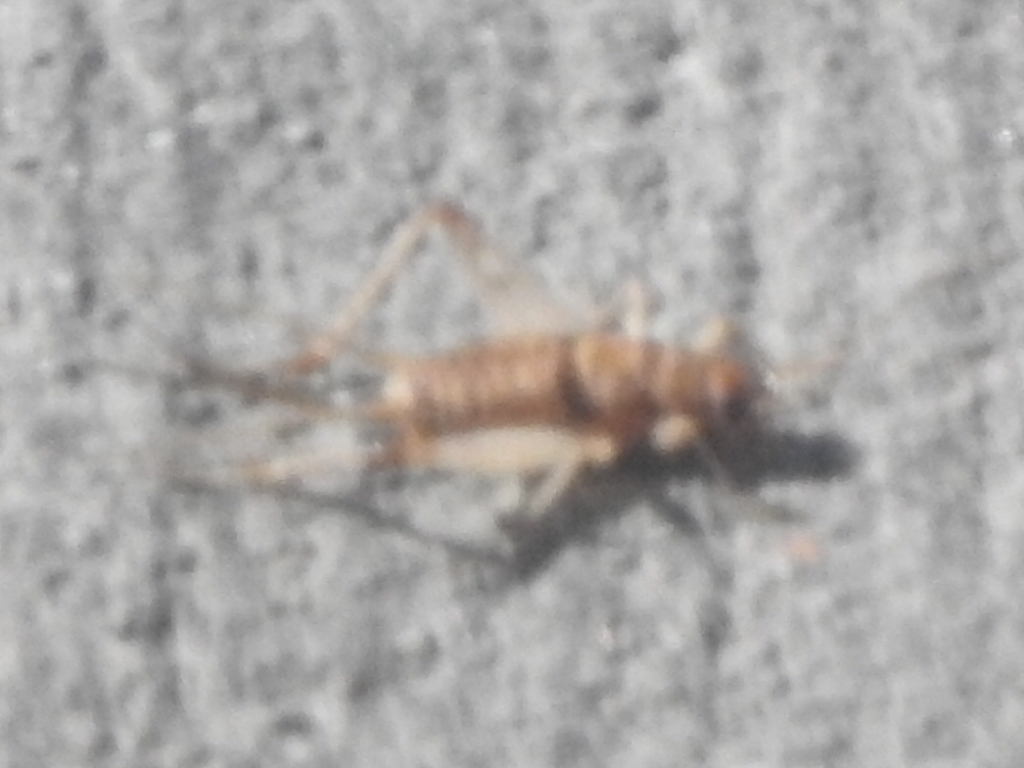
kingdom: Animalia
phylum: Arthropoda
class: Insecta
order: Orthoptera
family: Gryllidae
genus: Gryllodes
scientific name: Gryllodes sigillatus
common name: Tropical house cricket
